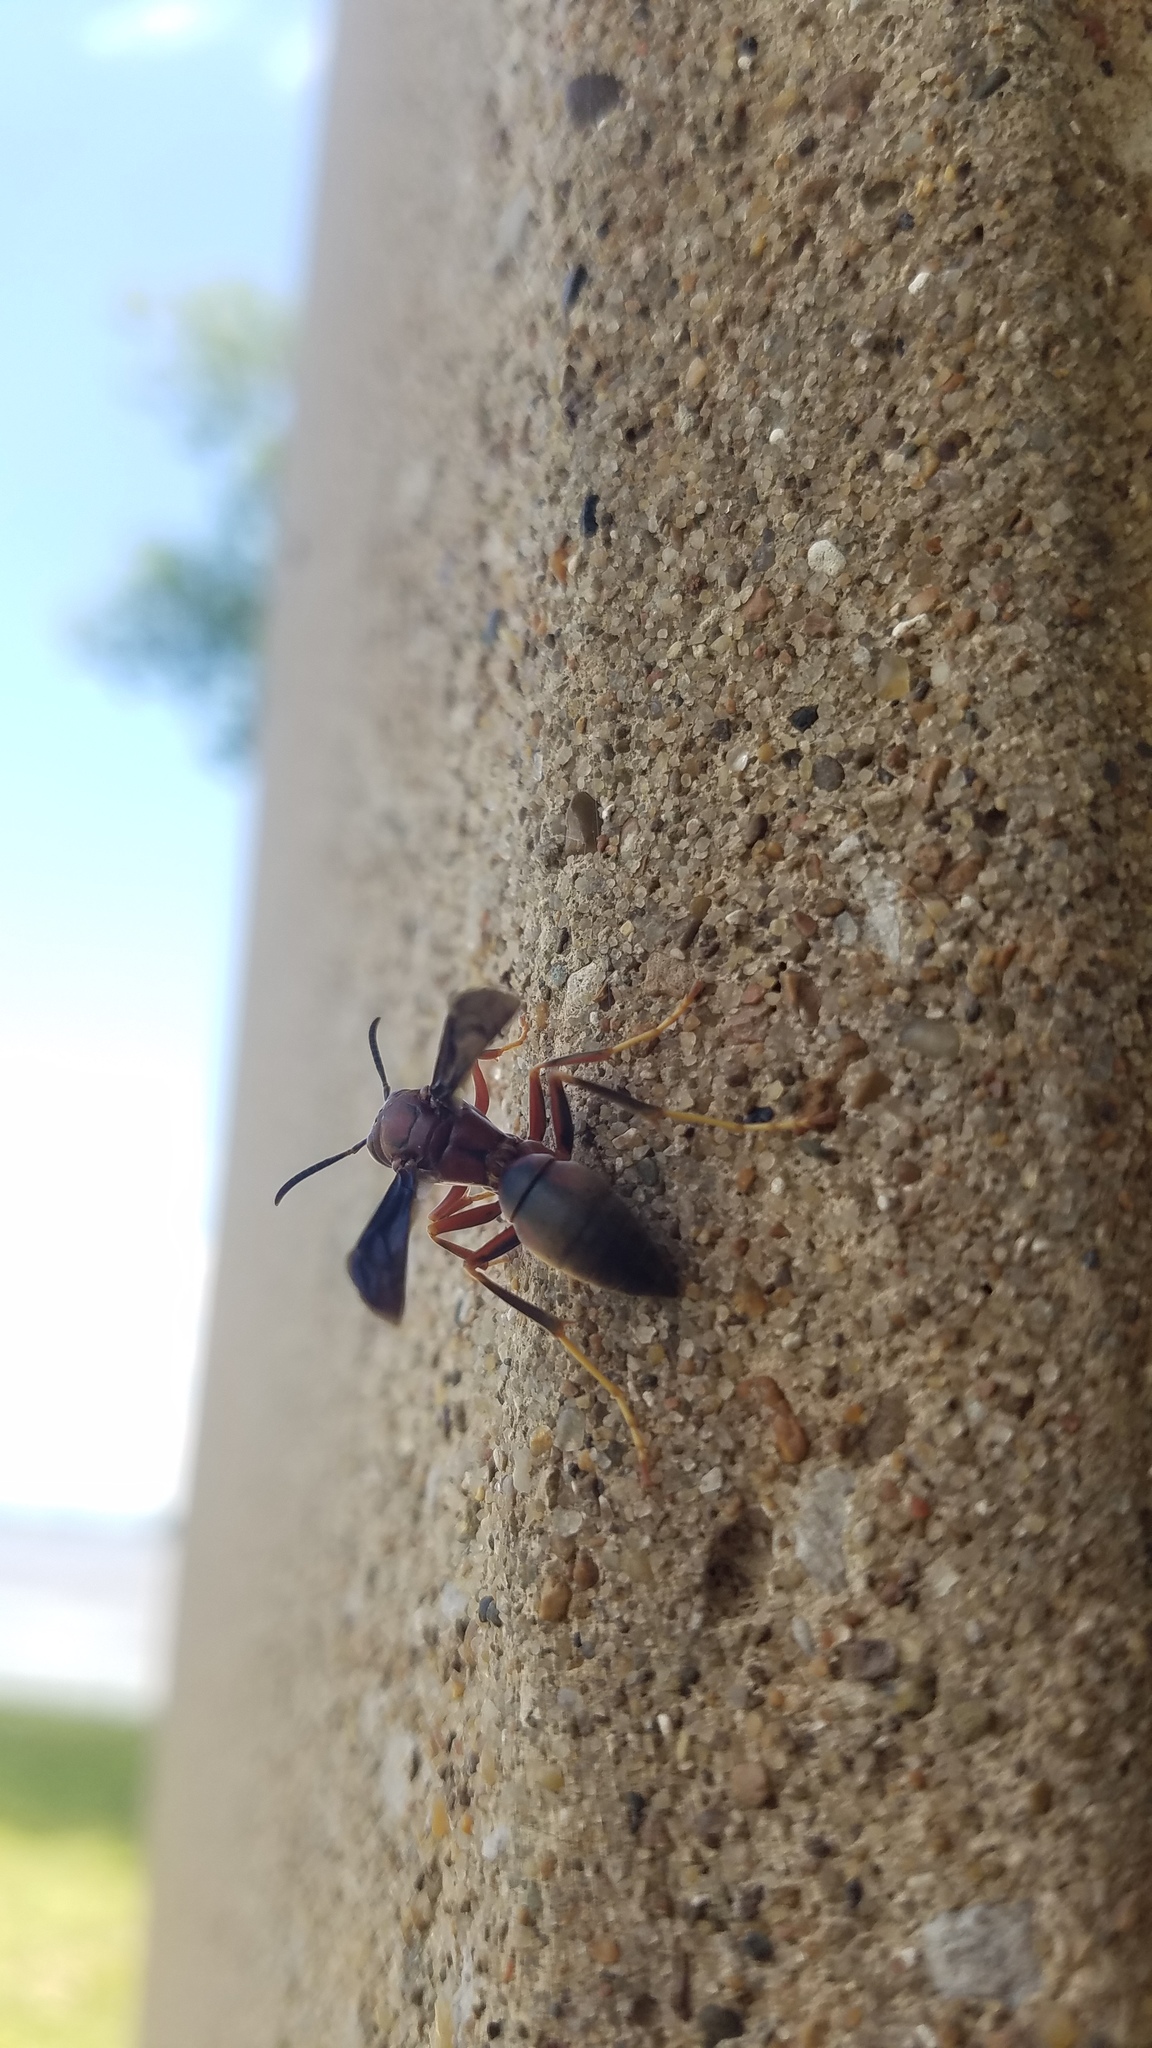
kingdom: Animalia
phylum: Arthropoda
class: Insecta
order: Hymenoptera
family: Eumenidae
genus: Polistes
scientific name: Polistes metricus
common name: Metric paper wasp
